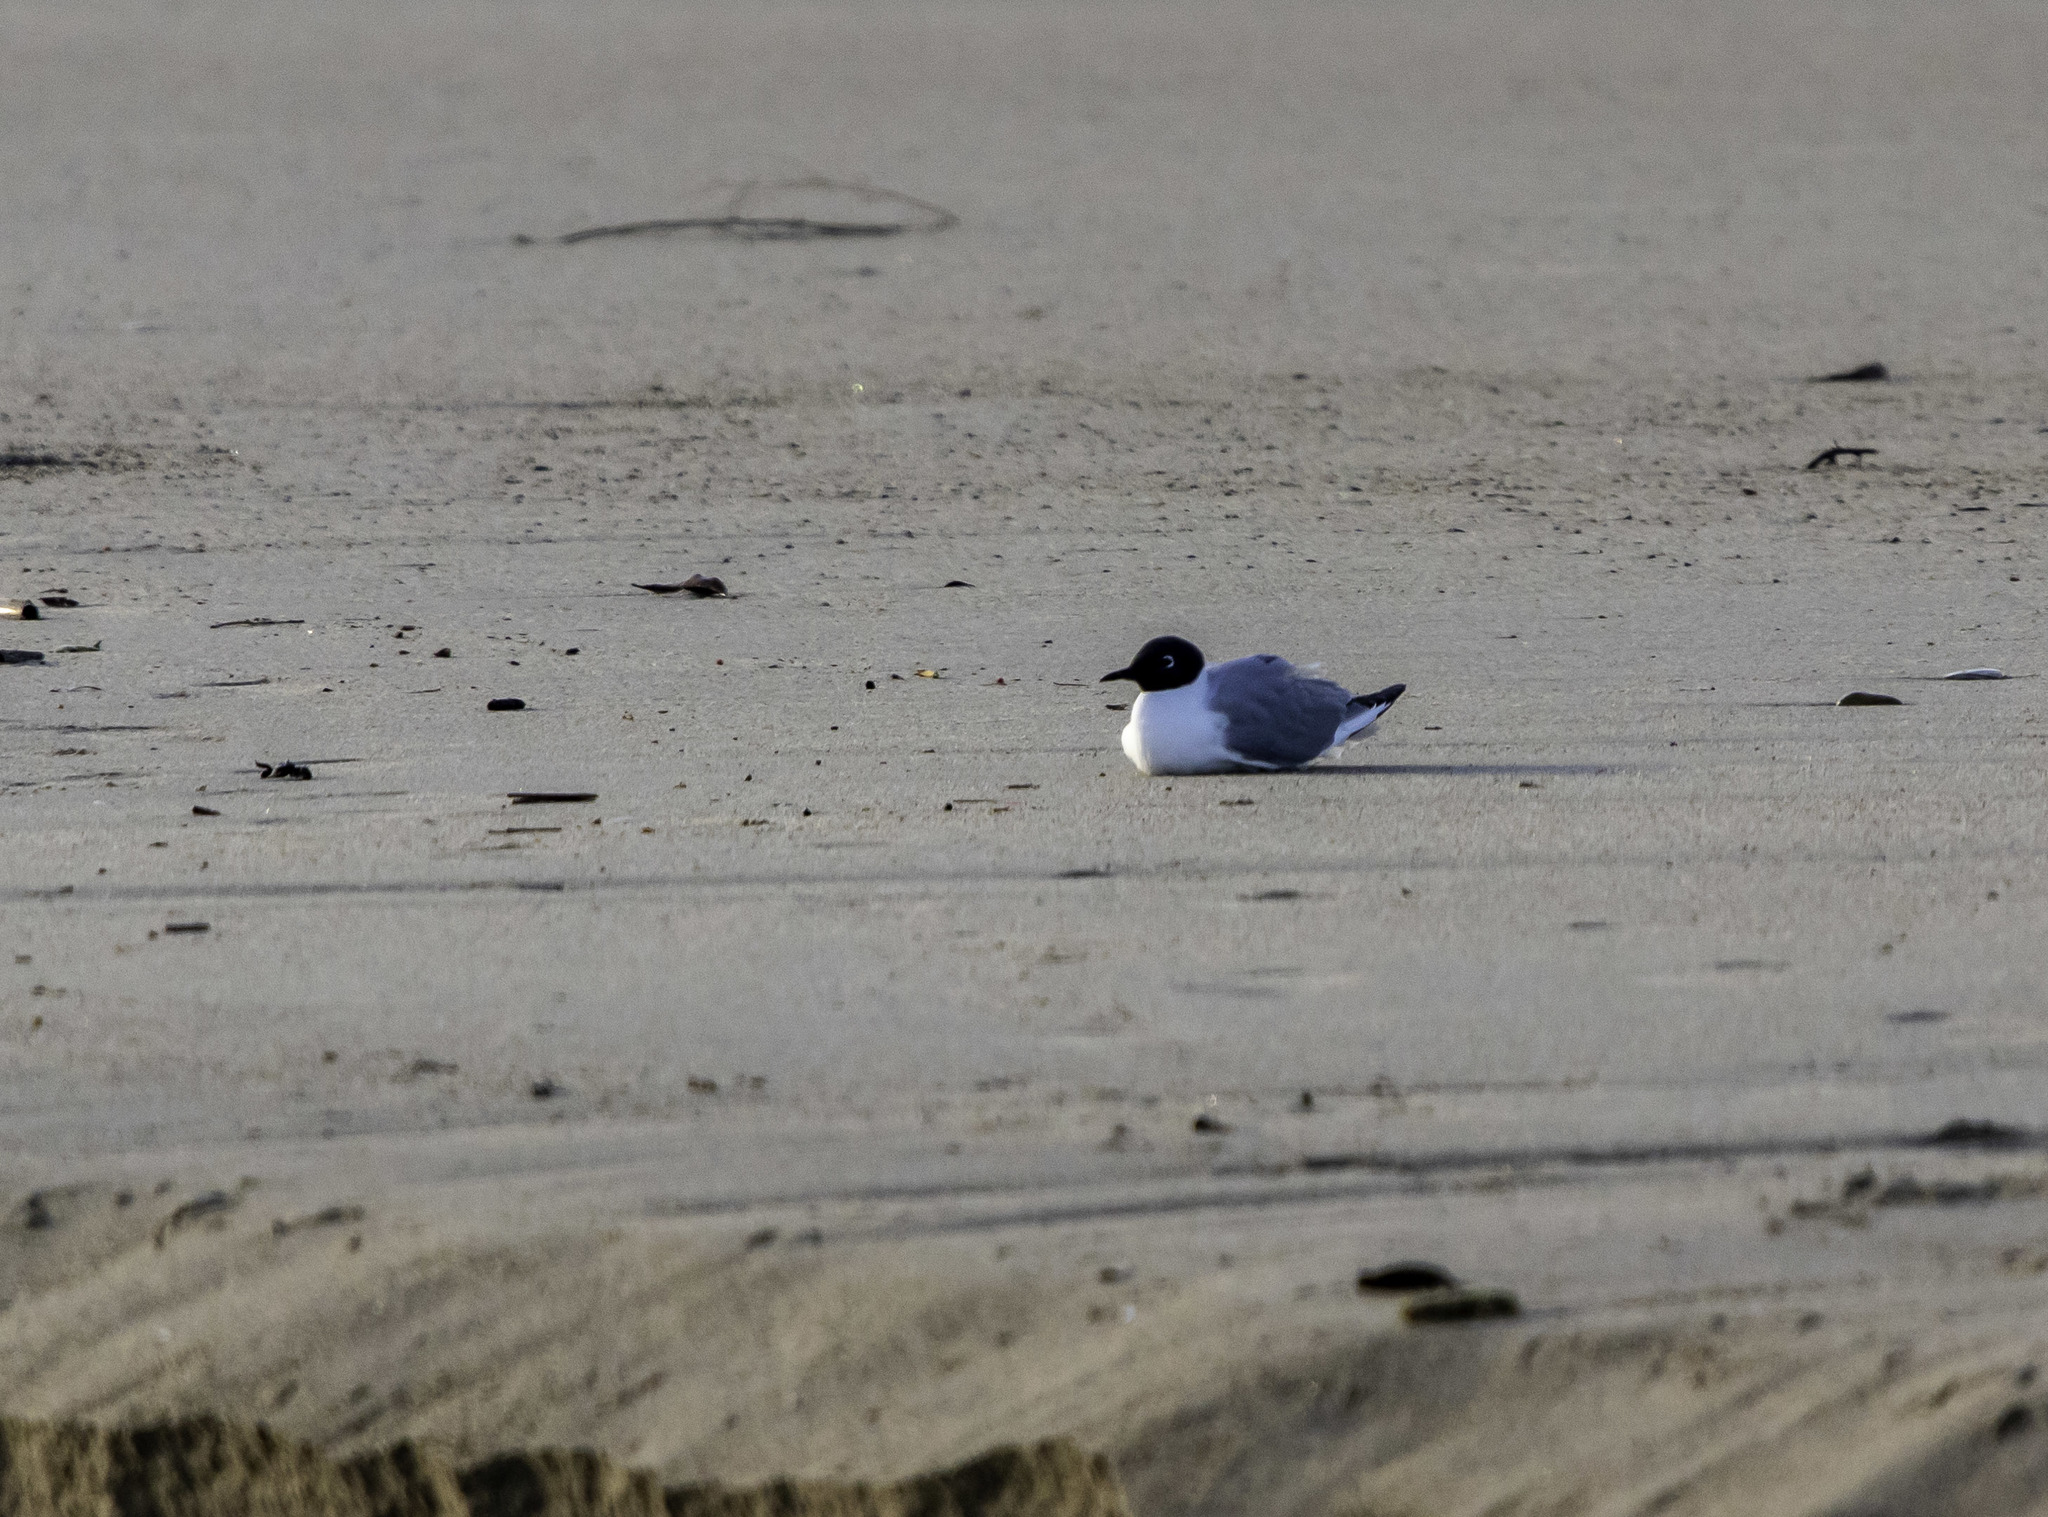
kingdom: Animalia
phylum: Chordata
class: Aves
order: Charadriiformes
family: Laridae
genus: Chroicocephalus
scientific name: Chroicocephalus philadelphia
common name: Bonaparte's gull
